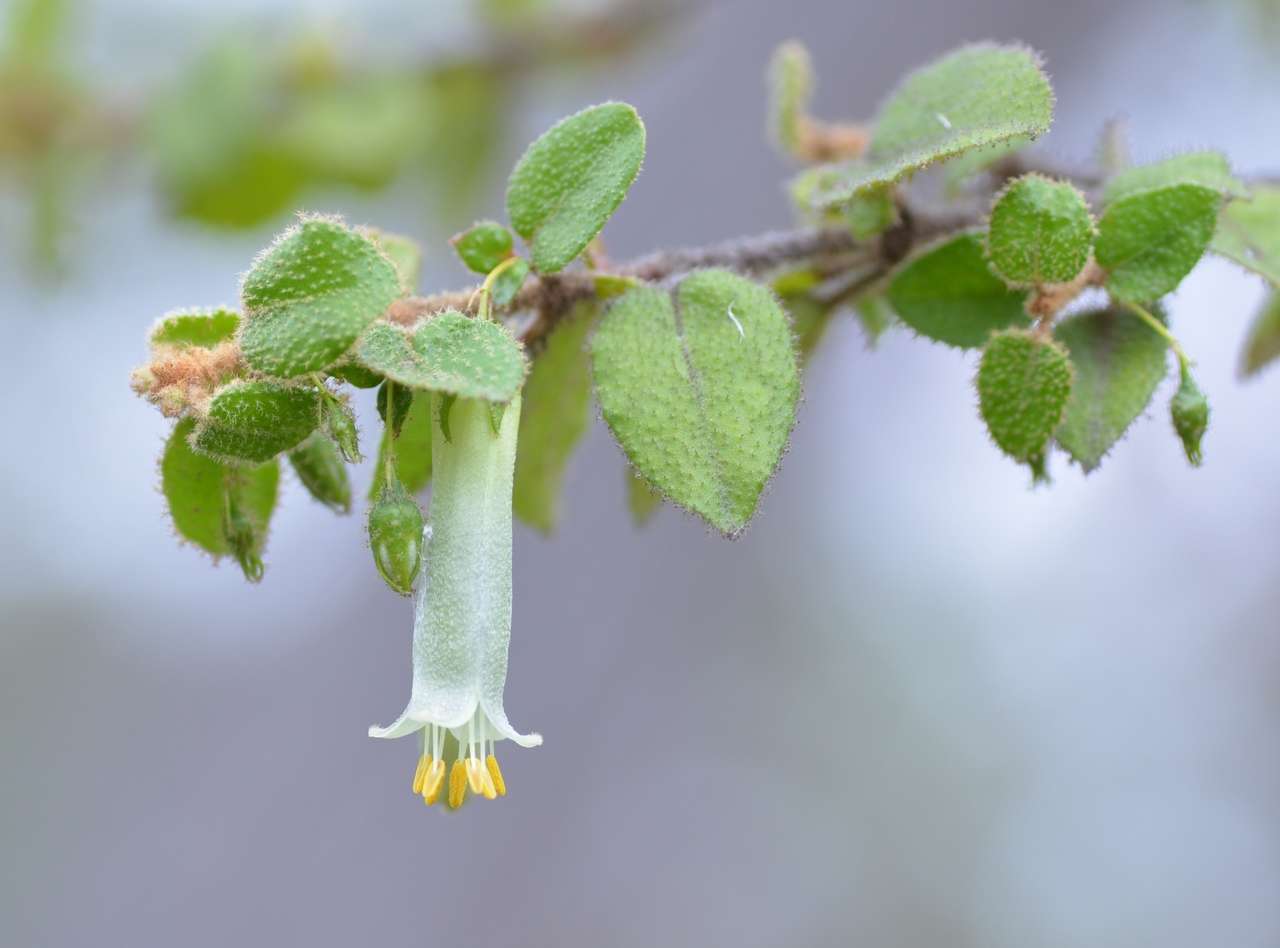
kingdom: Plantae
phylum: Tracheophyta
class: Magnoliopsida
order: Sapindales
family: Rutaceae
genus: Correa
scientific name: Correa aemula
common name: Hairy correa
